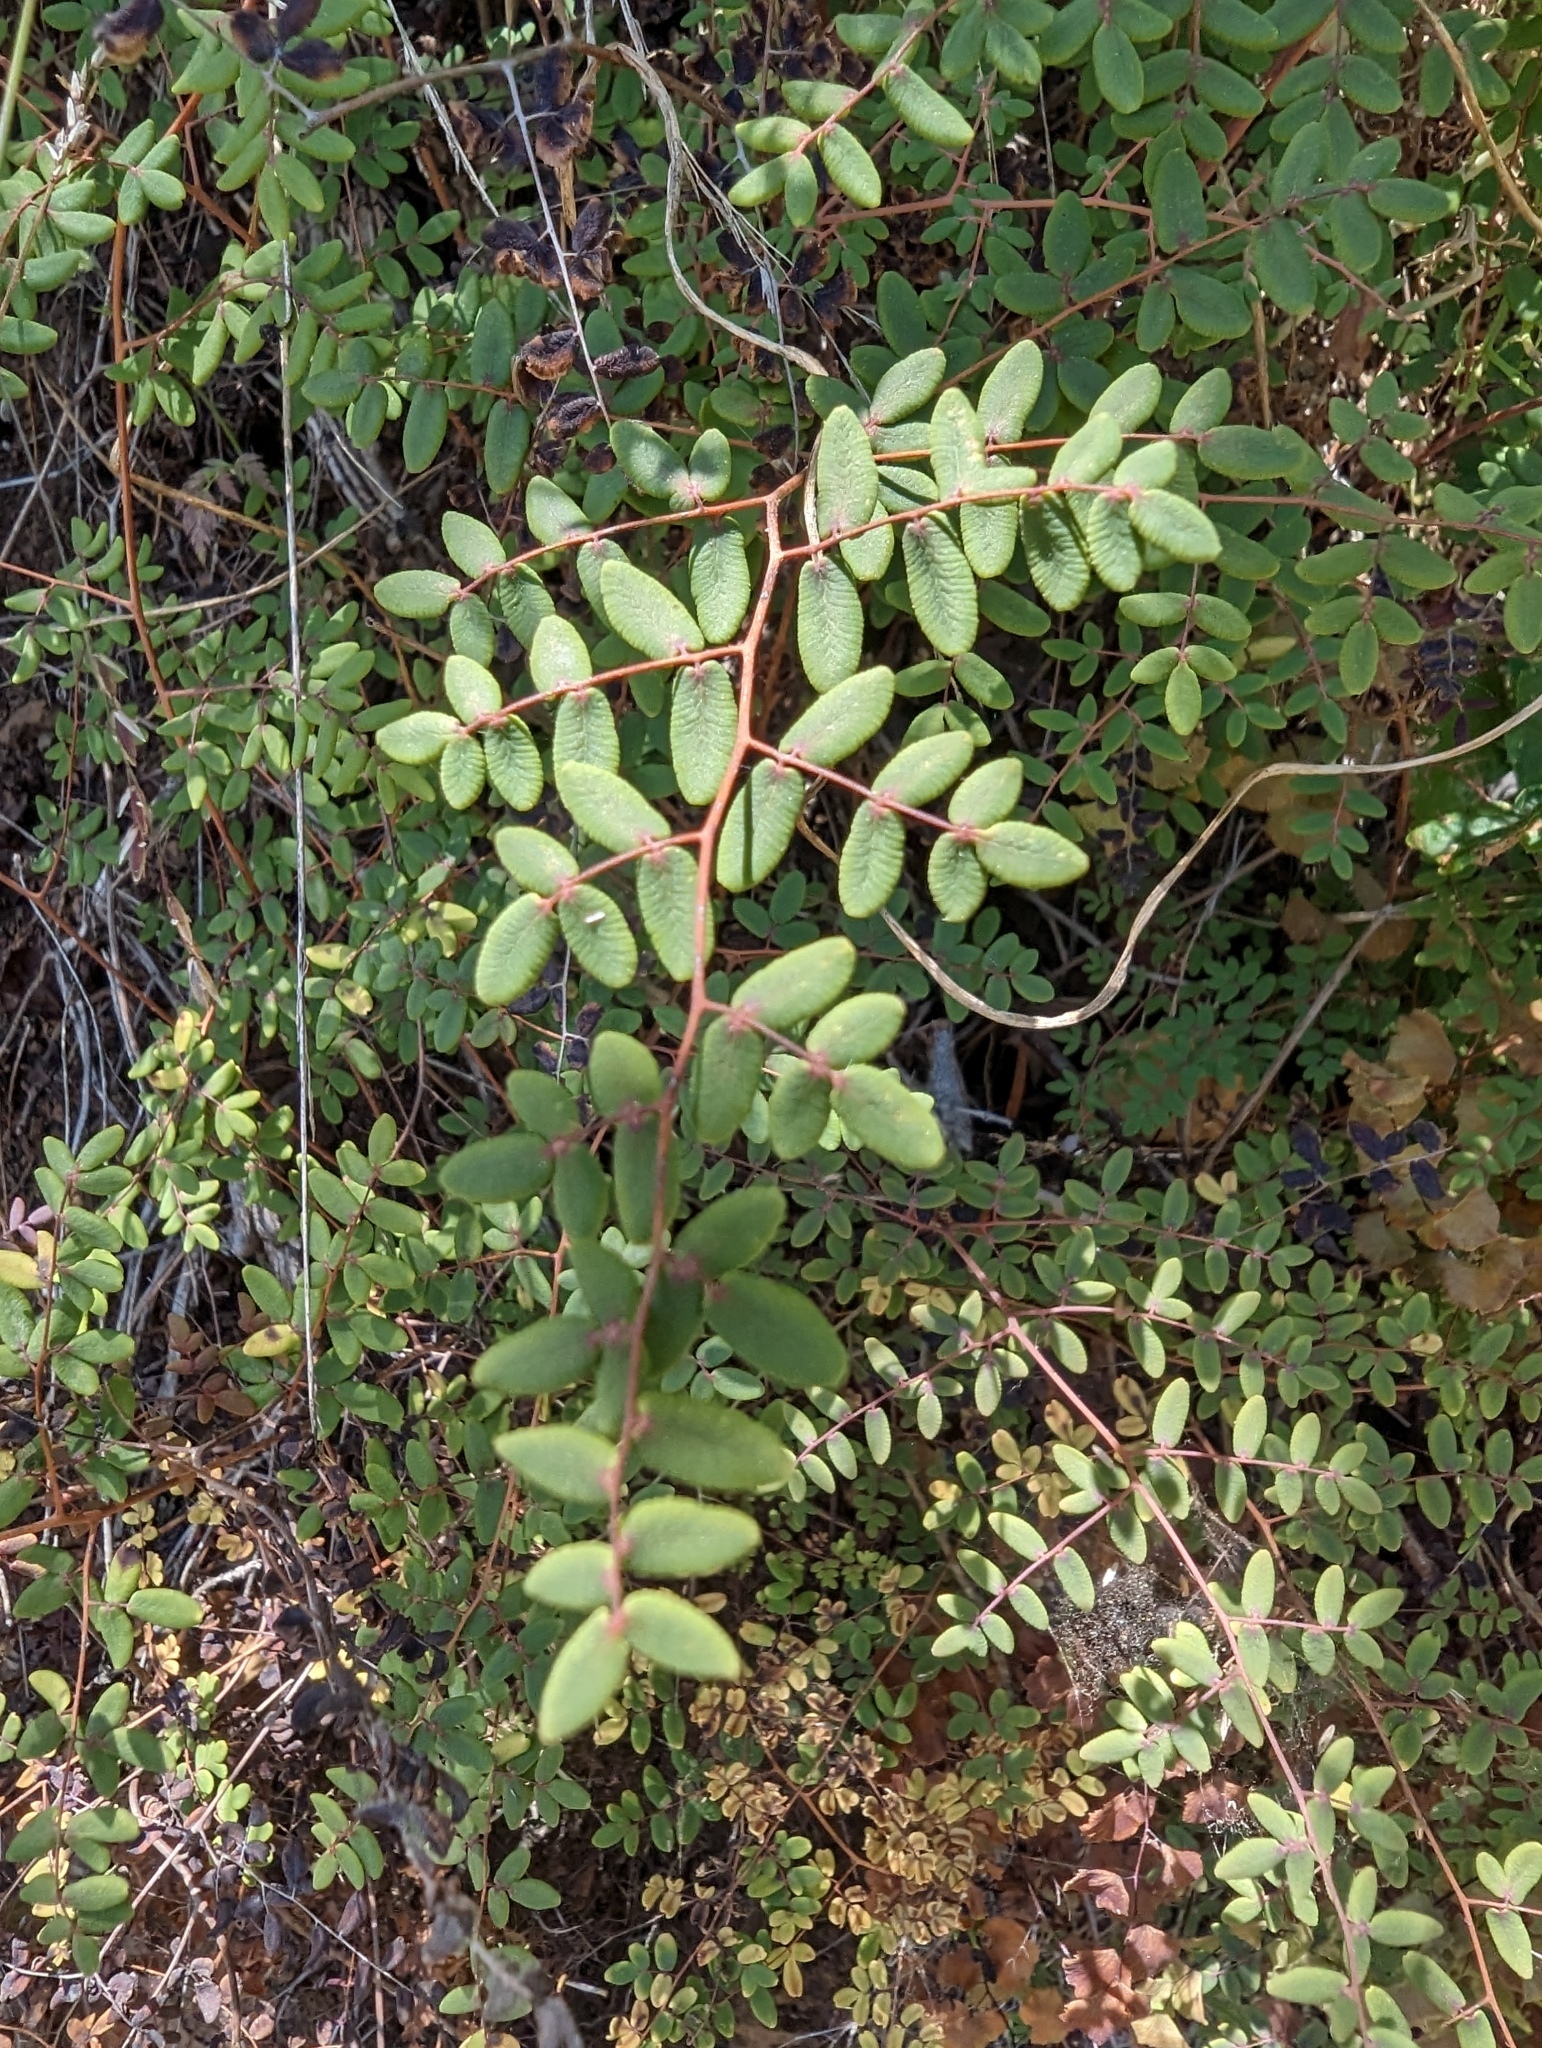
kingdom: Plantae
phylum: Tracheophyta
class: Polypodiopsida
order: Polypodiales
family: Pteridaceae
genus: Pellaea
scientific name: Pellaea andromedifolia
